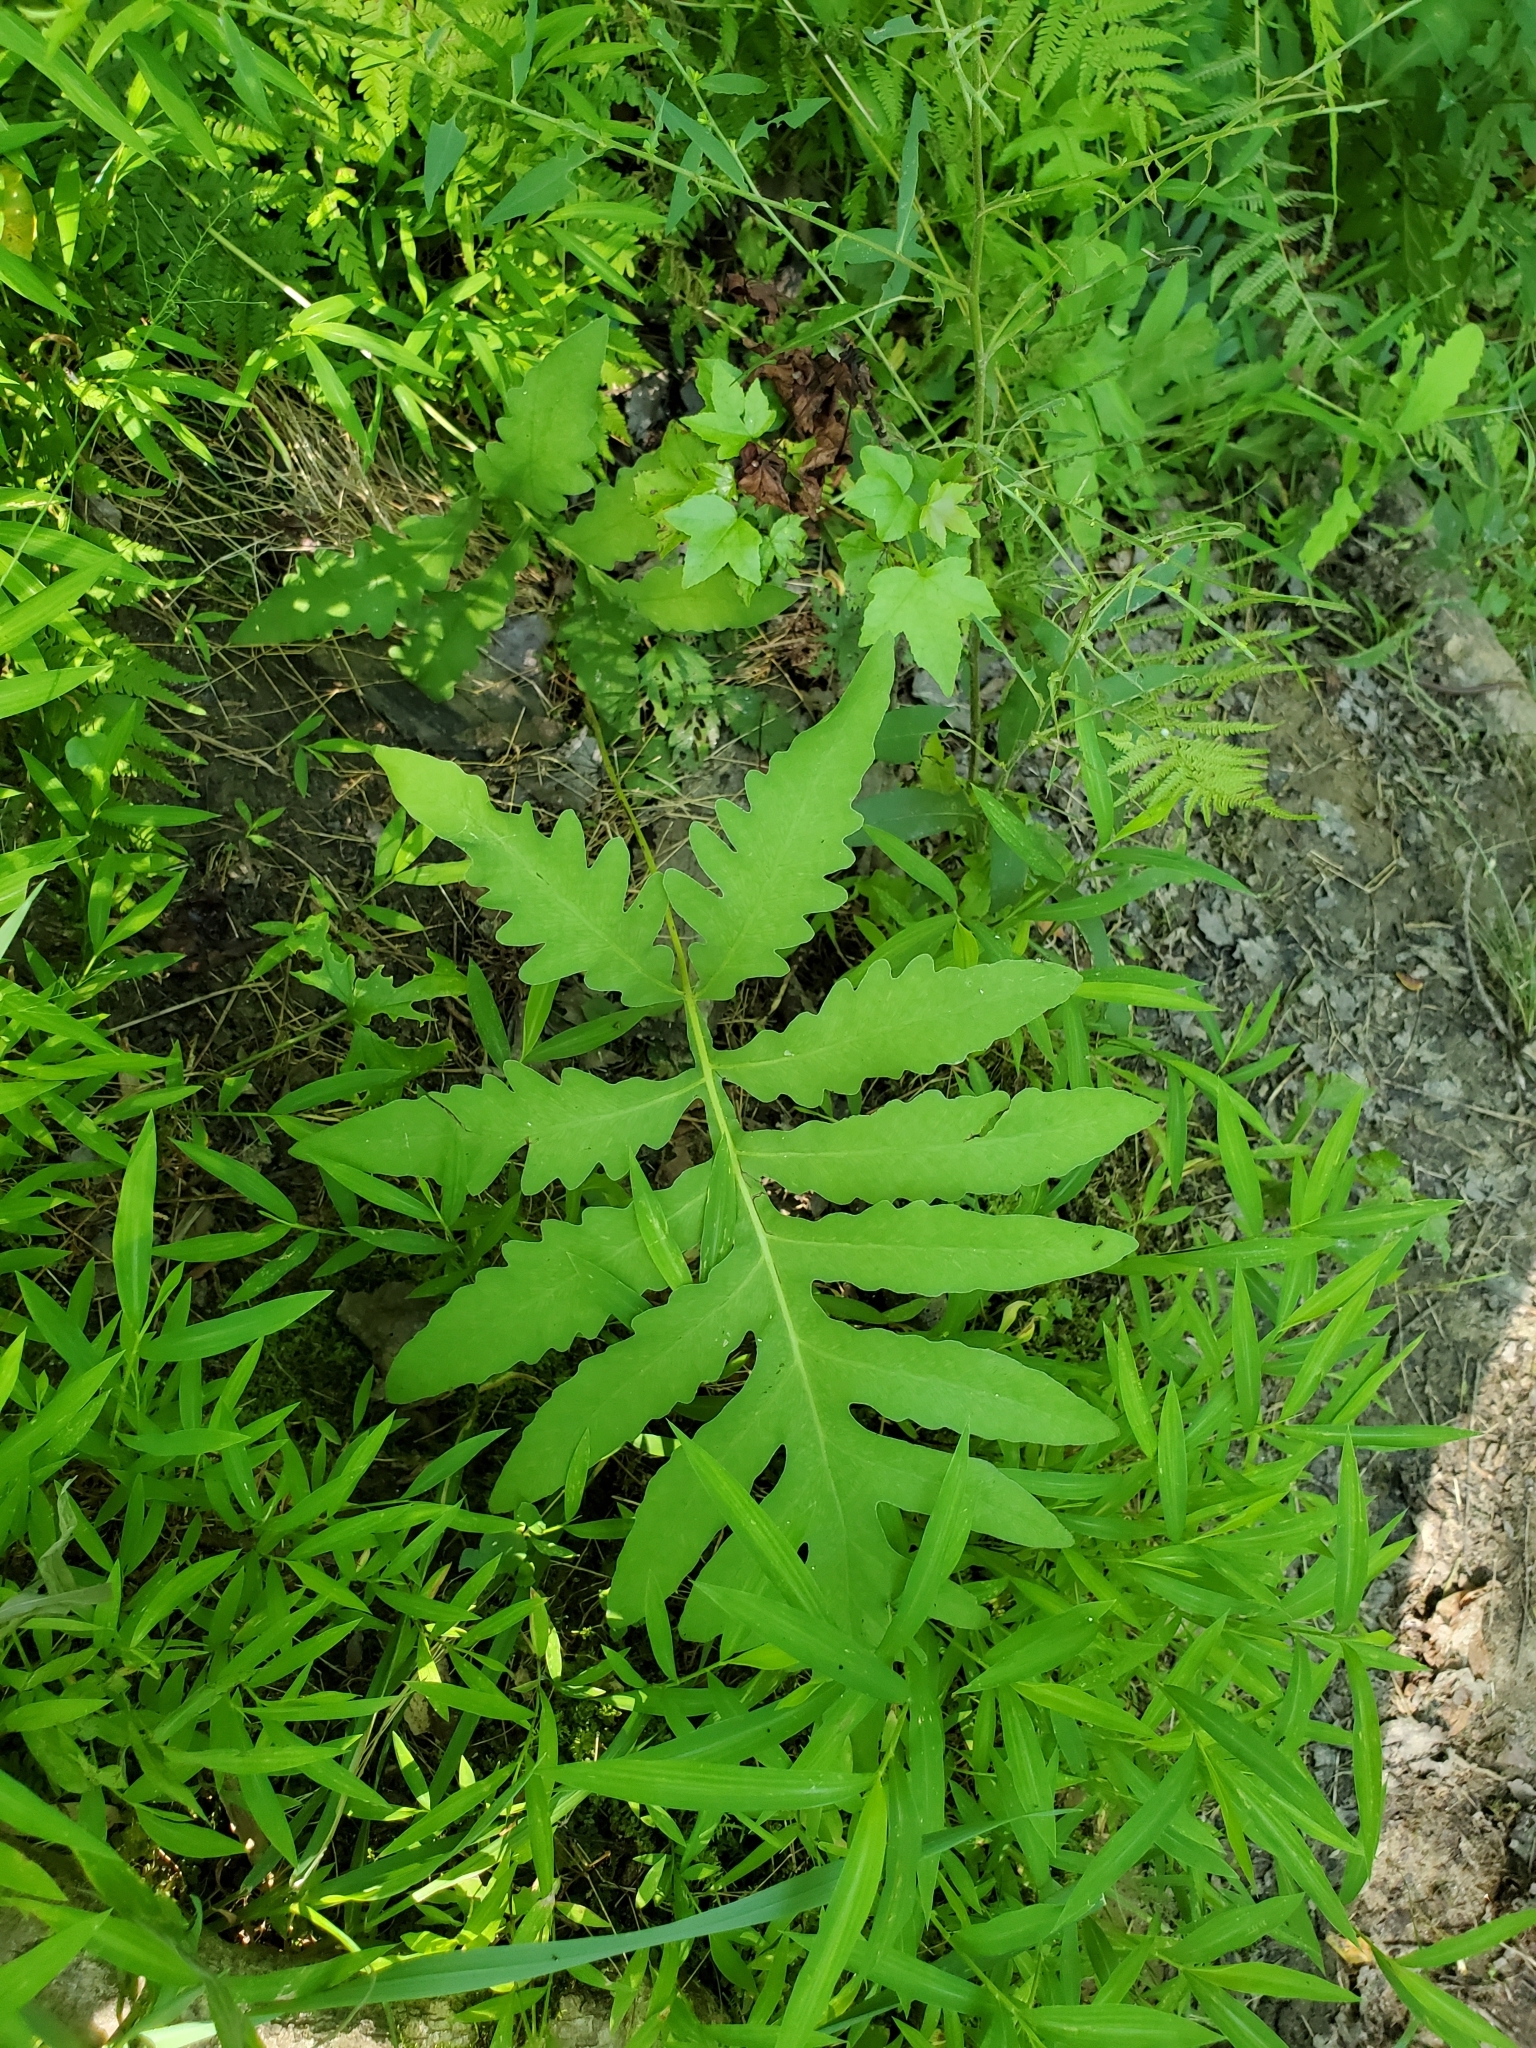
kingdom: Plantae
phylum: Tracheophyta
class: Polypodiopsida
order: Polypodiales
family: Onocleaceae
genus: Onoclea
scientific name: Onoclea sensibilis
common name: Sensitive fern
